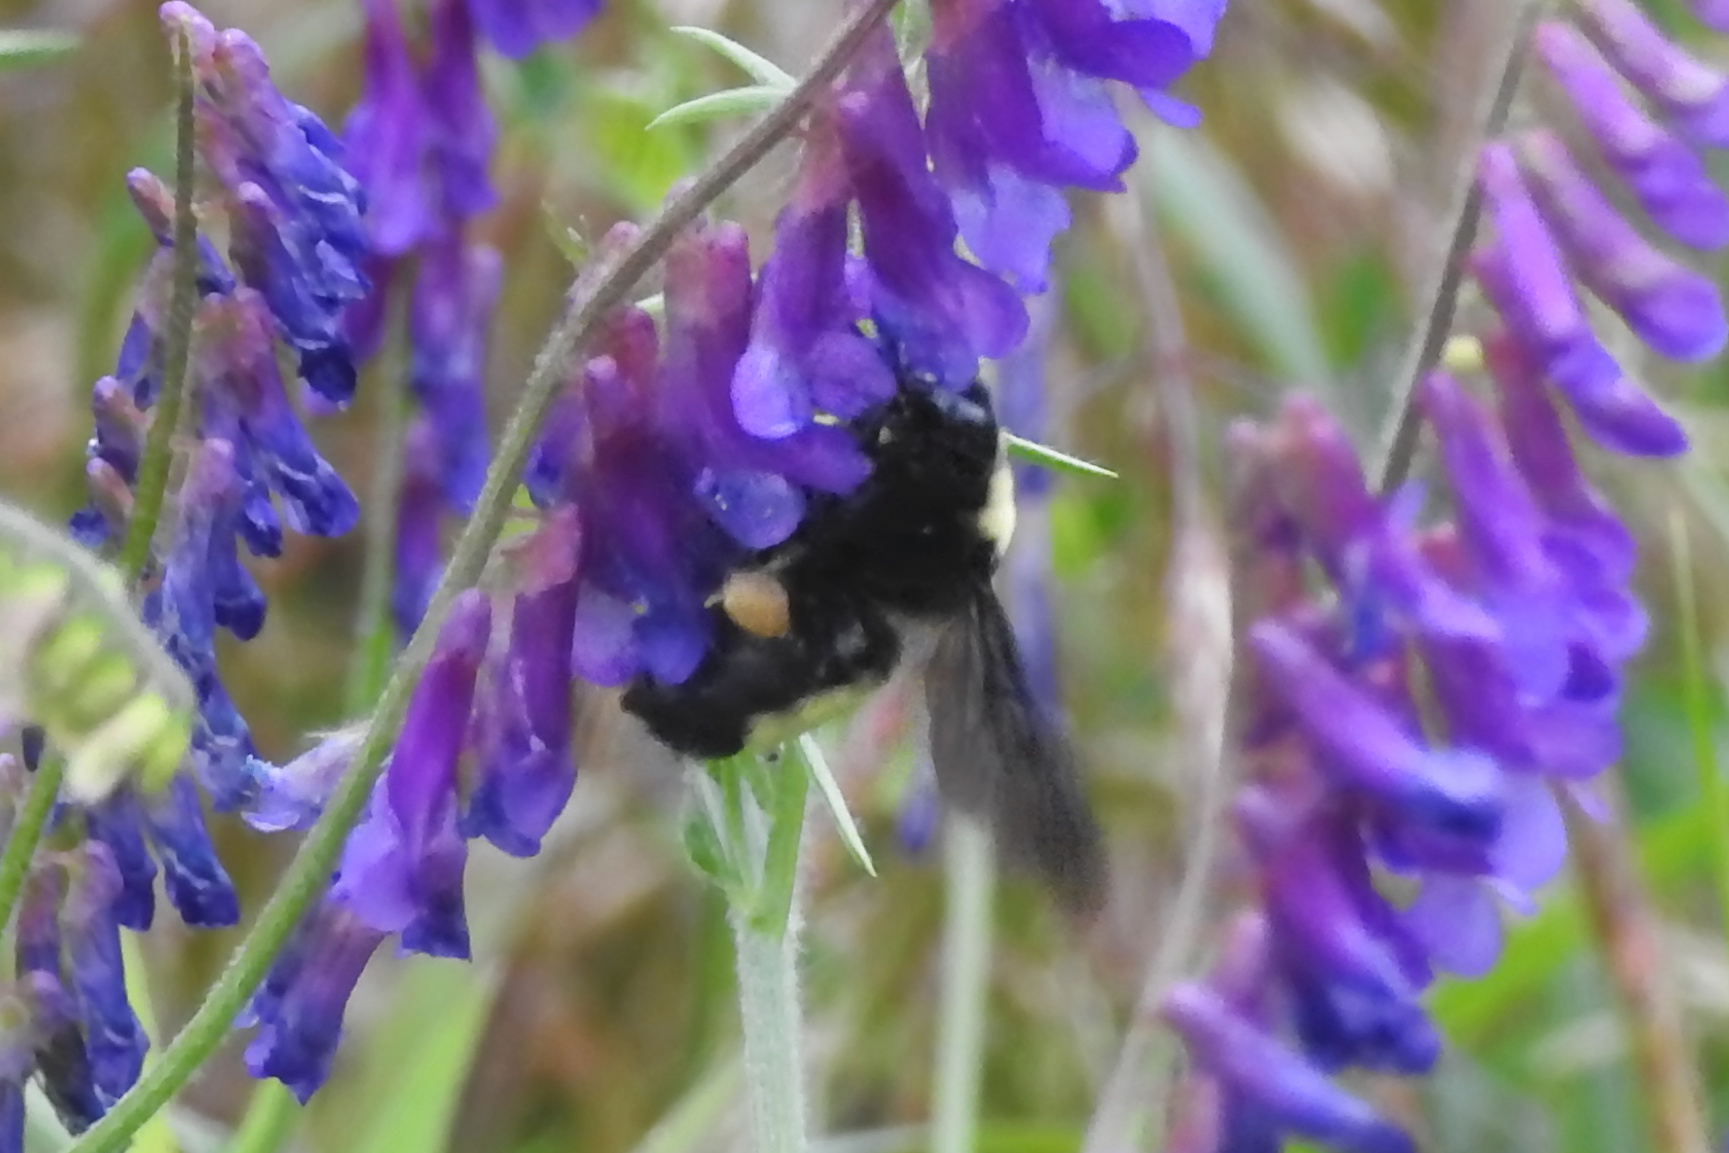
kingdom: Animalia
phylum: Arthropoda
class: Insecta
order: Hymenoptera
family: Apidae
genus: Bombus
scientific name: Bombus pensylvanicus
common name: Bumble bee
